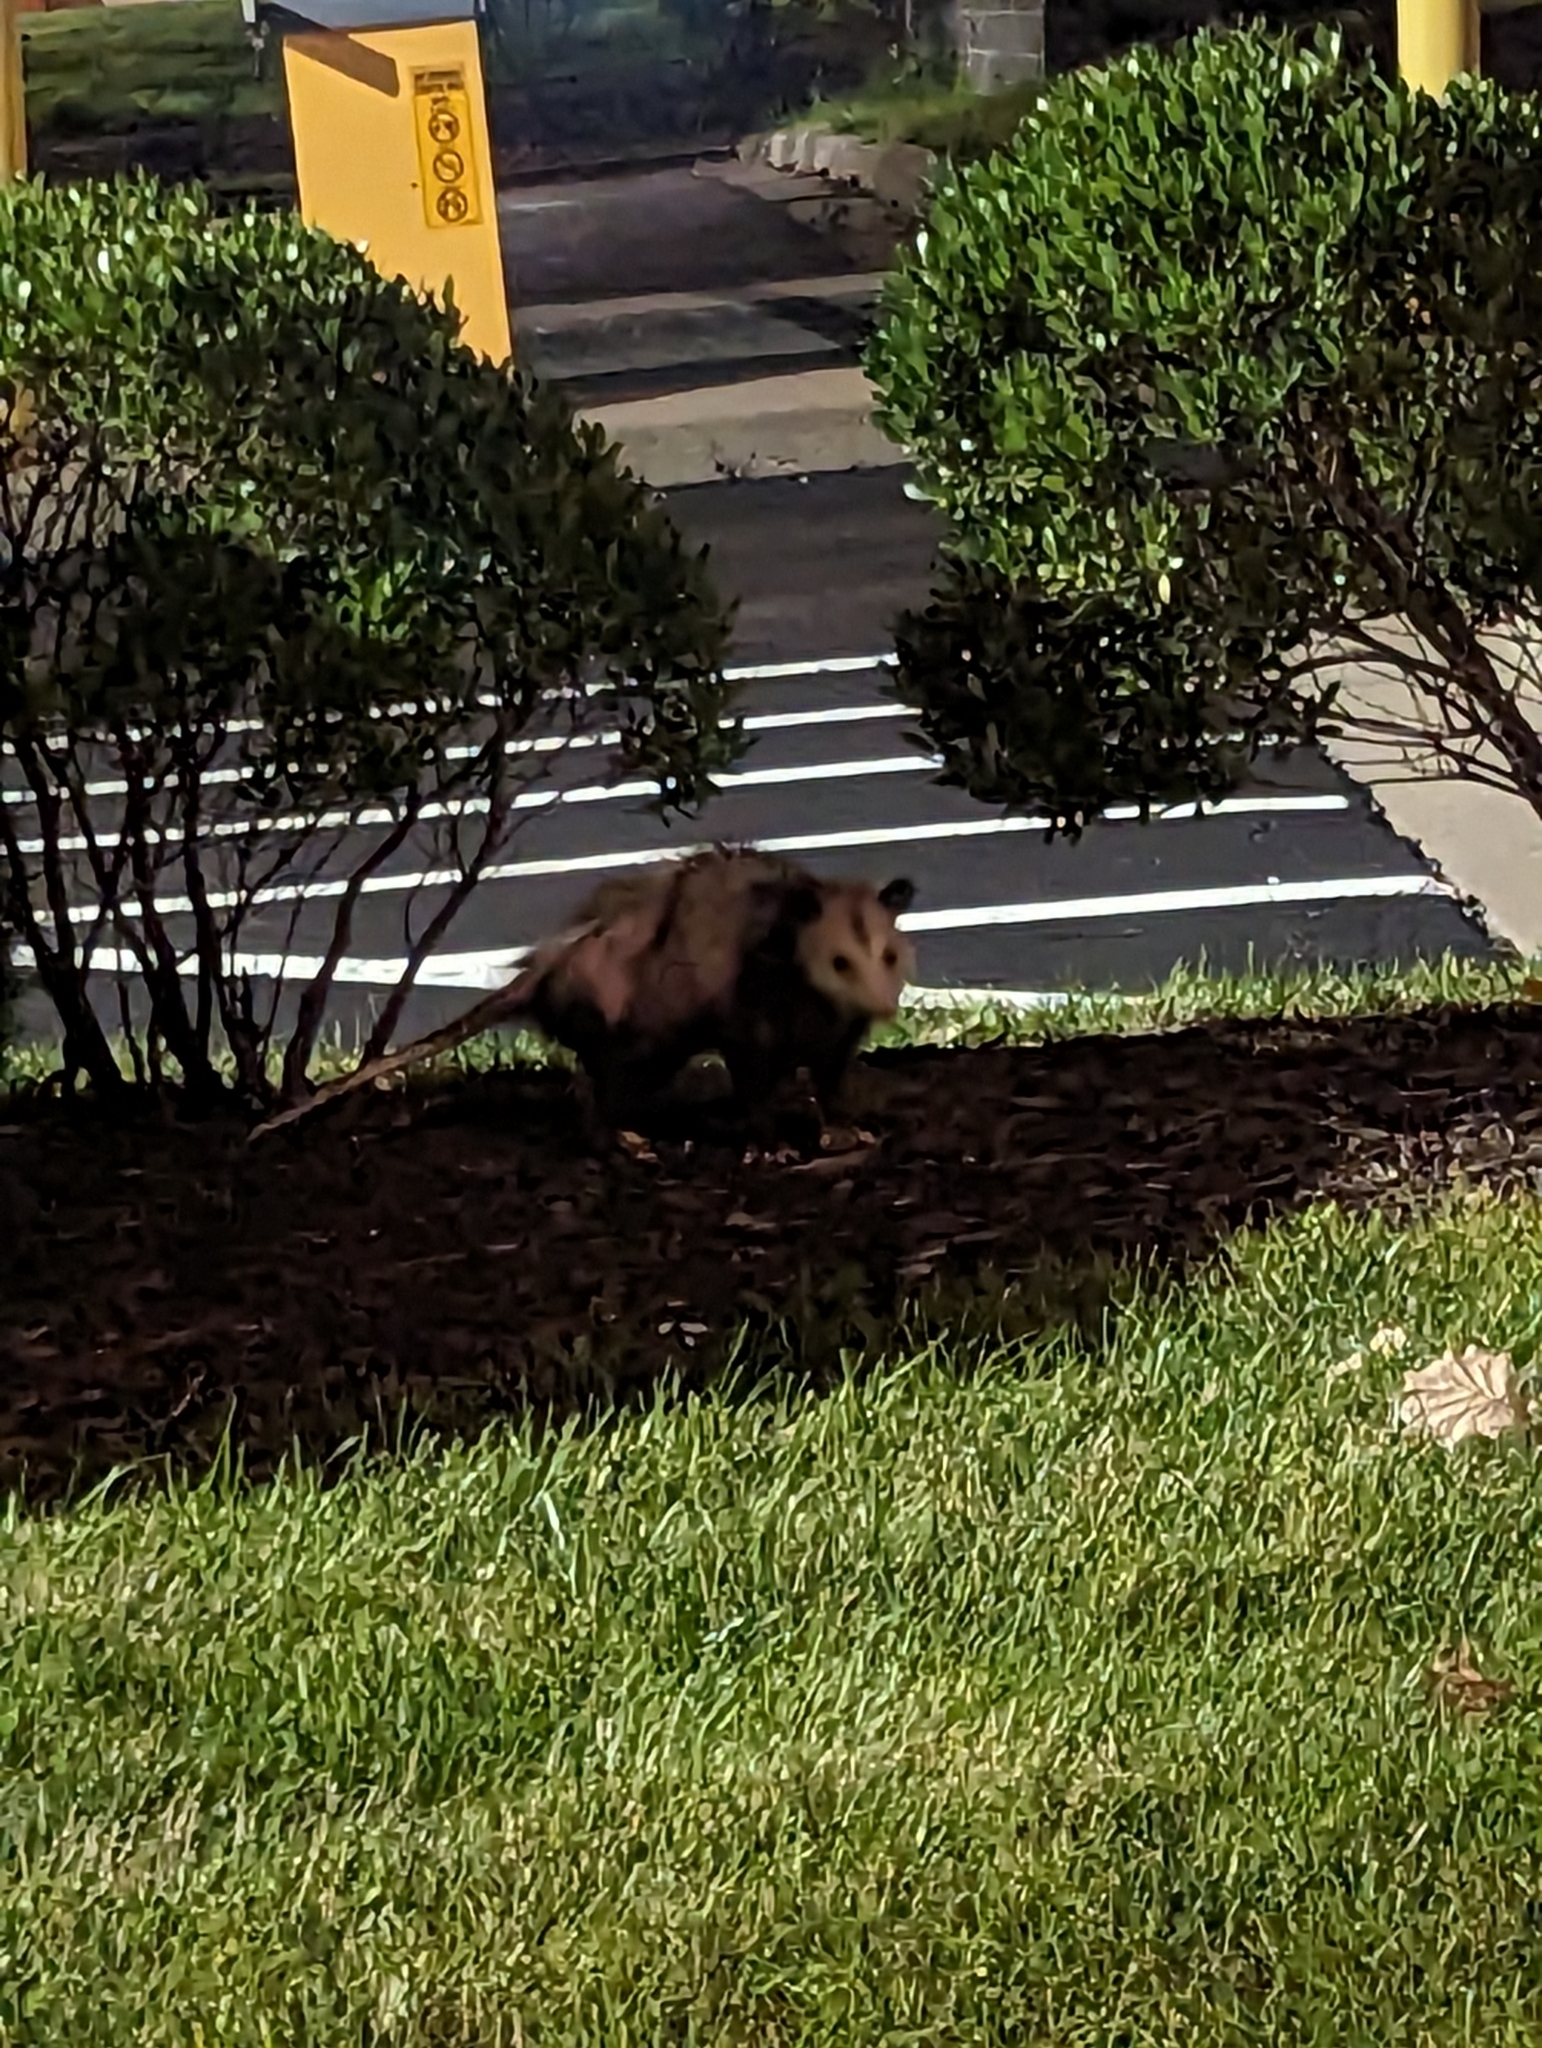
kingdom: Animalia
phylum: Chordata
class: Mammalia
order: Didelphimorphia
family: Didelphidae
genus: Didelphis
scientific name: Didelphis virginiana
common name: Virginia opossum
